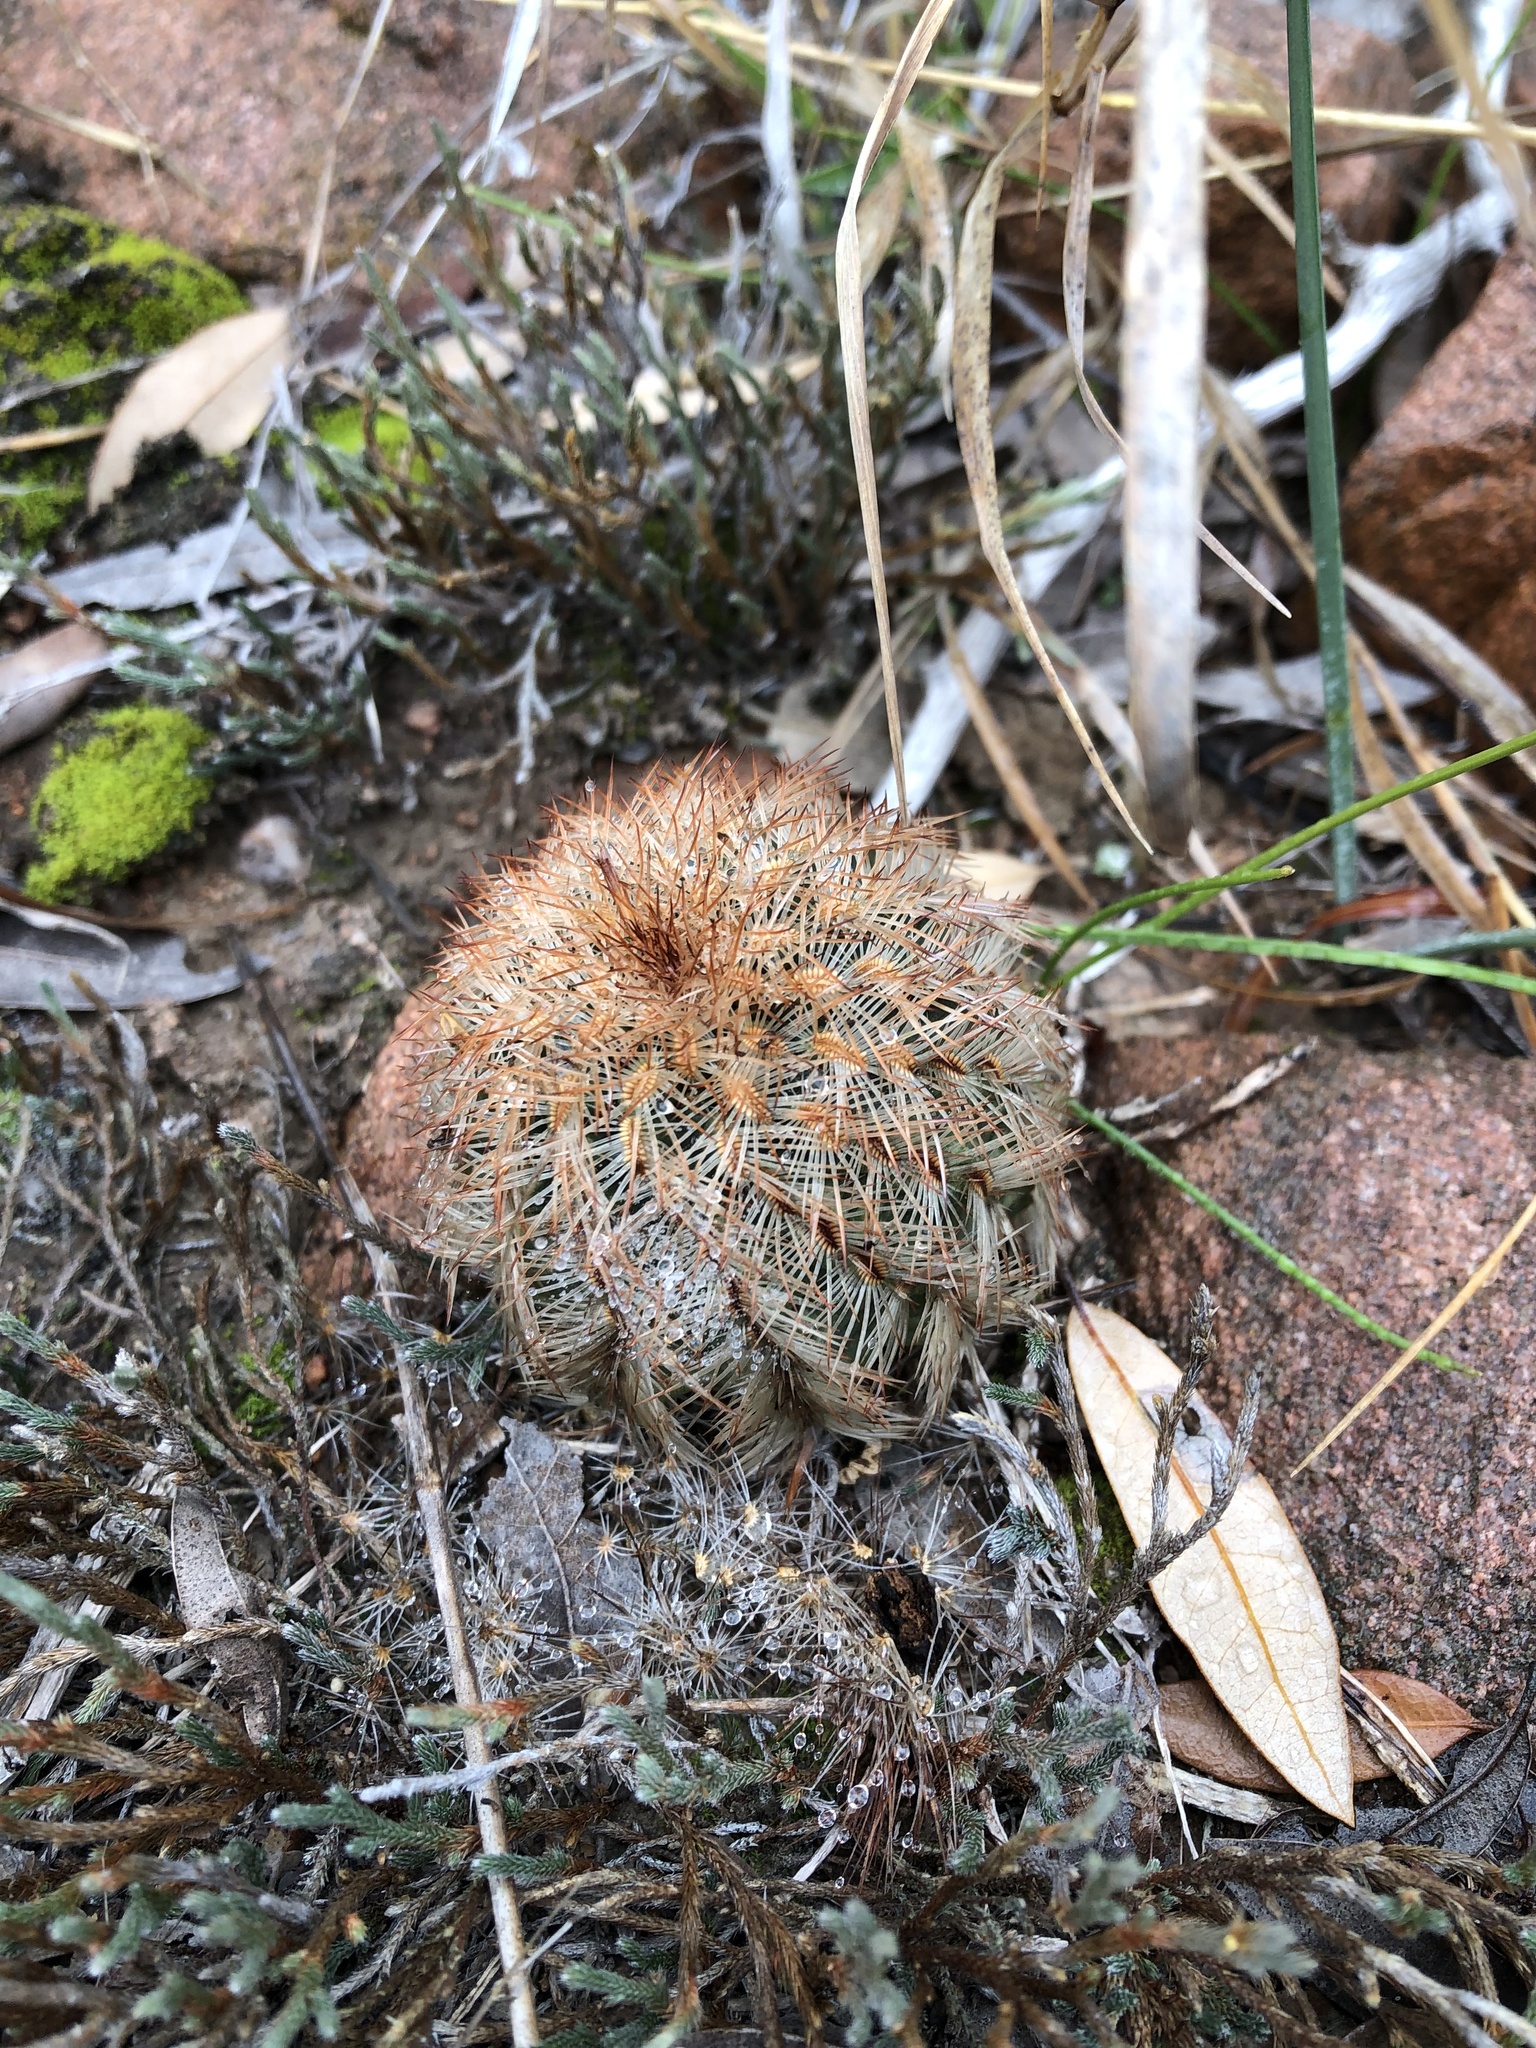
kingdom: Plantae
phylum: Tracheophyta
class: Magnoliopsida
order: Caryophyllales
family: Cactaceae
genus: Echinocereus
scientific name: Echinocereus reichenbachii
